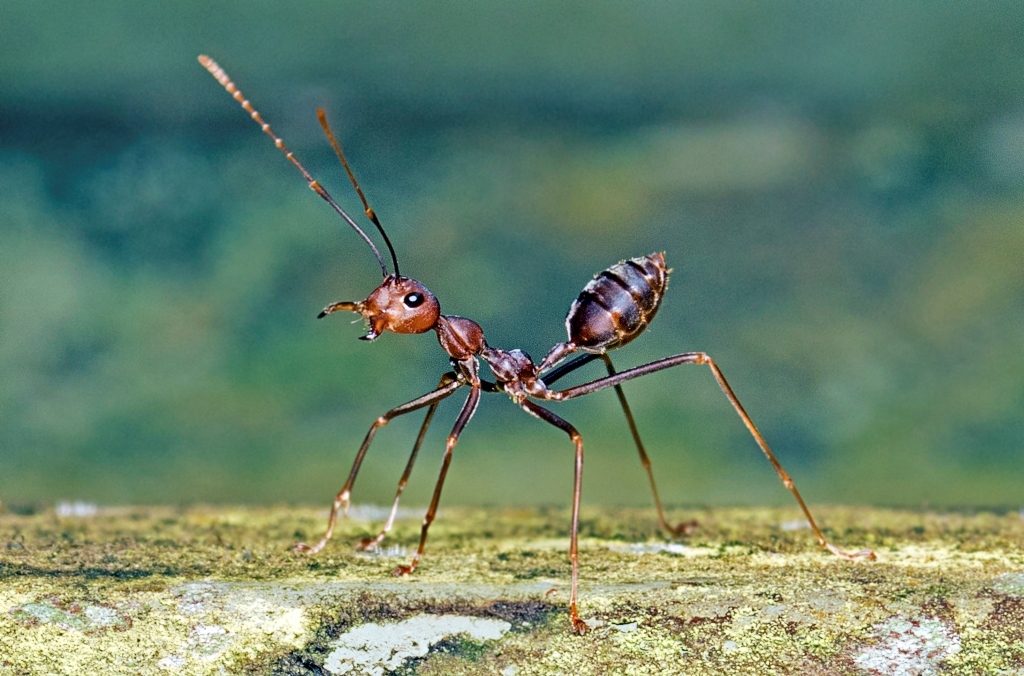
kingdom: Animalia
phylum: Arthropoda
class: Insecta
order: Hymenoptera
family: Formicidae
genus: Oecophylla
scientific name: Oecophylla smaragdina
